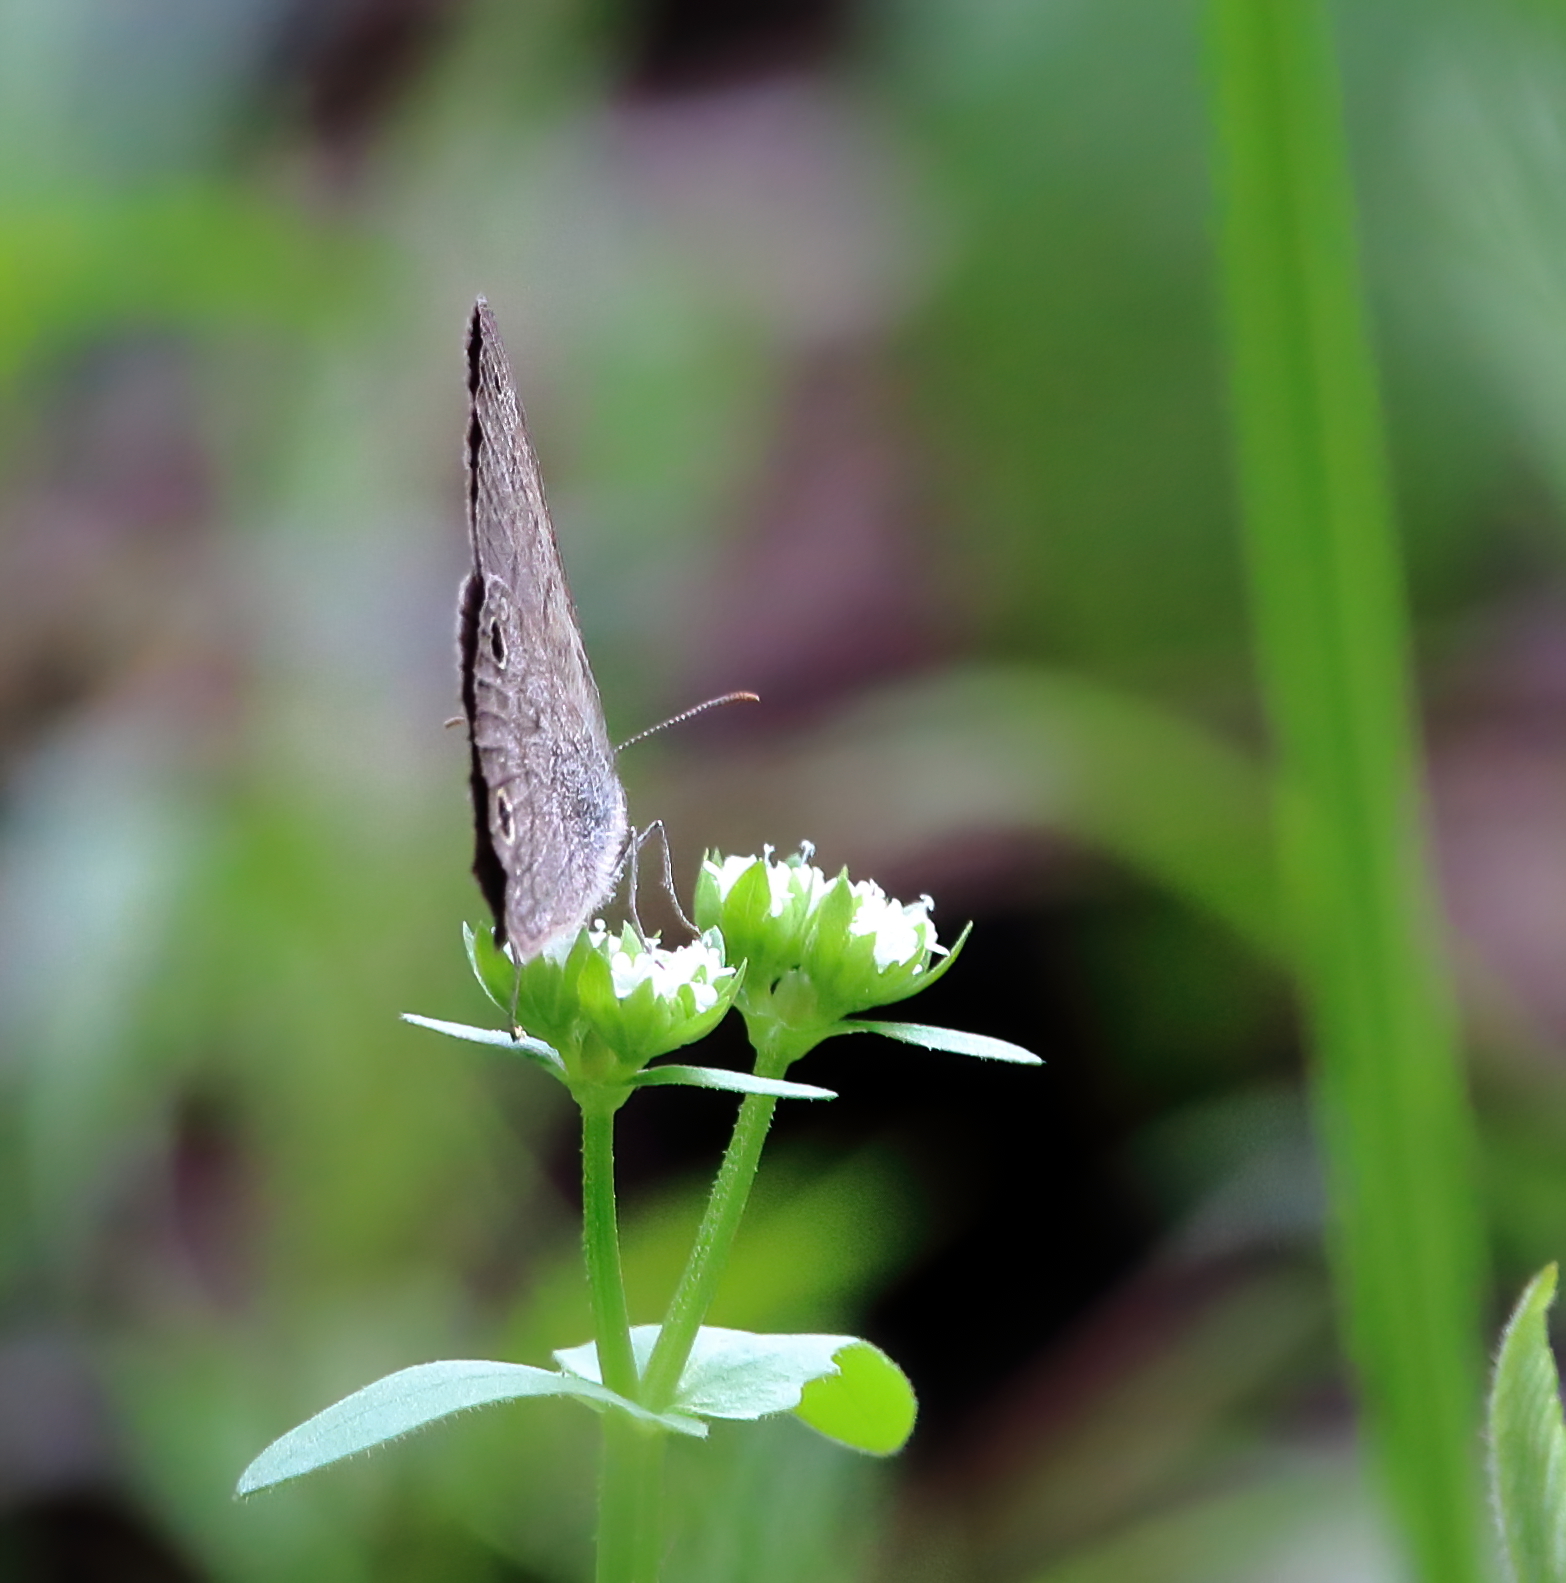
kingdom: Animalia
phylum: Arthropoda
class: Insecta
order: Lepidoptera
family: Nymphalidae
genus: Hermeuptychia
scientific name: Hermeuptychia hermes
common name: Hermes satyr
